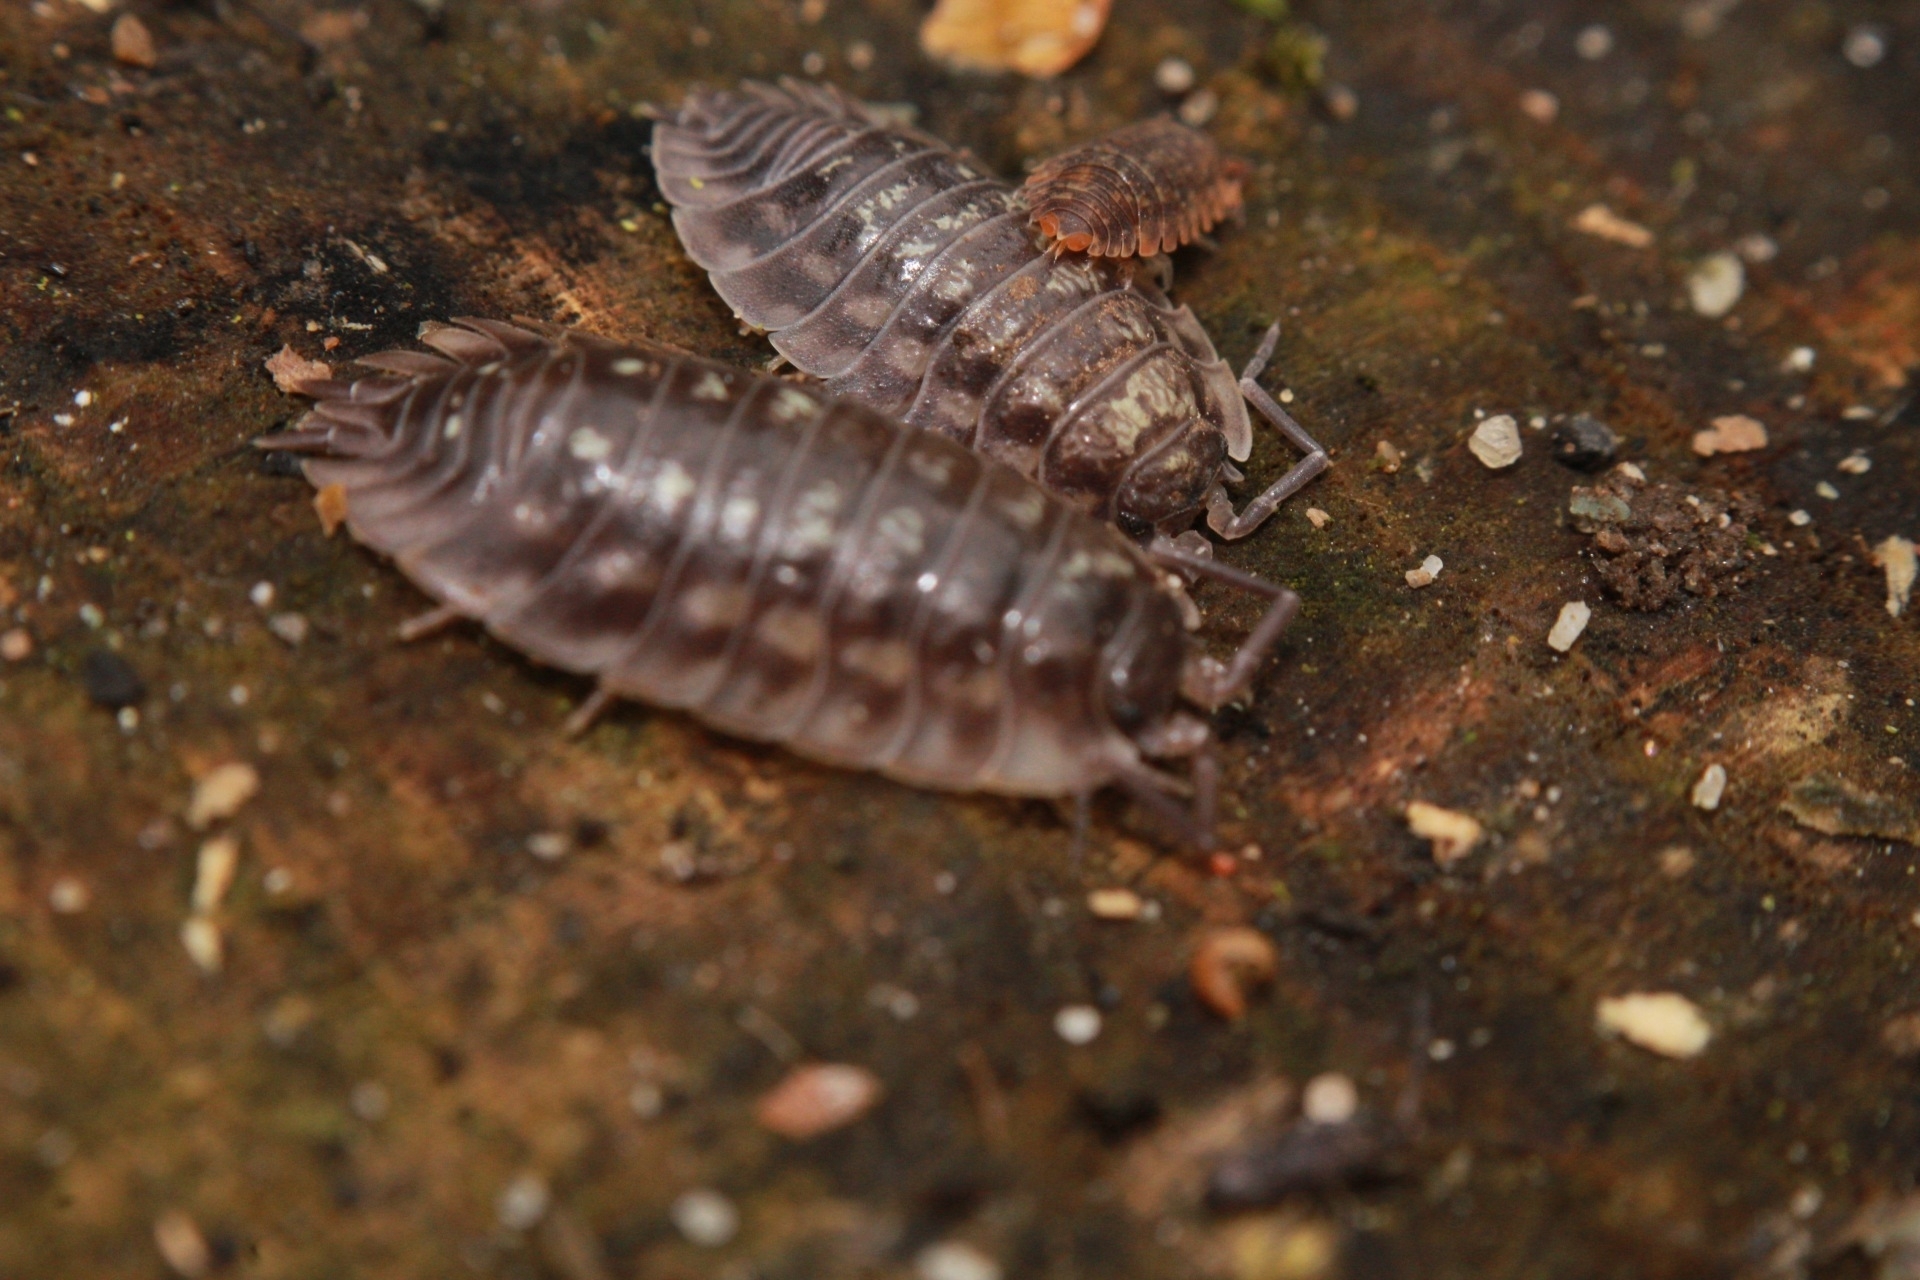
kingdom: Animalia
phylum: Arthropoda
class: Malacostraca
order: Isopoda
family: Oniscidae
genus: Oniscus
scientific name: Oniscus asellus
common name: Common shiny woodlouse
